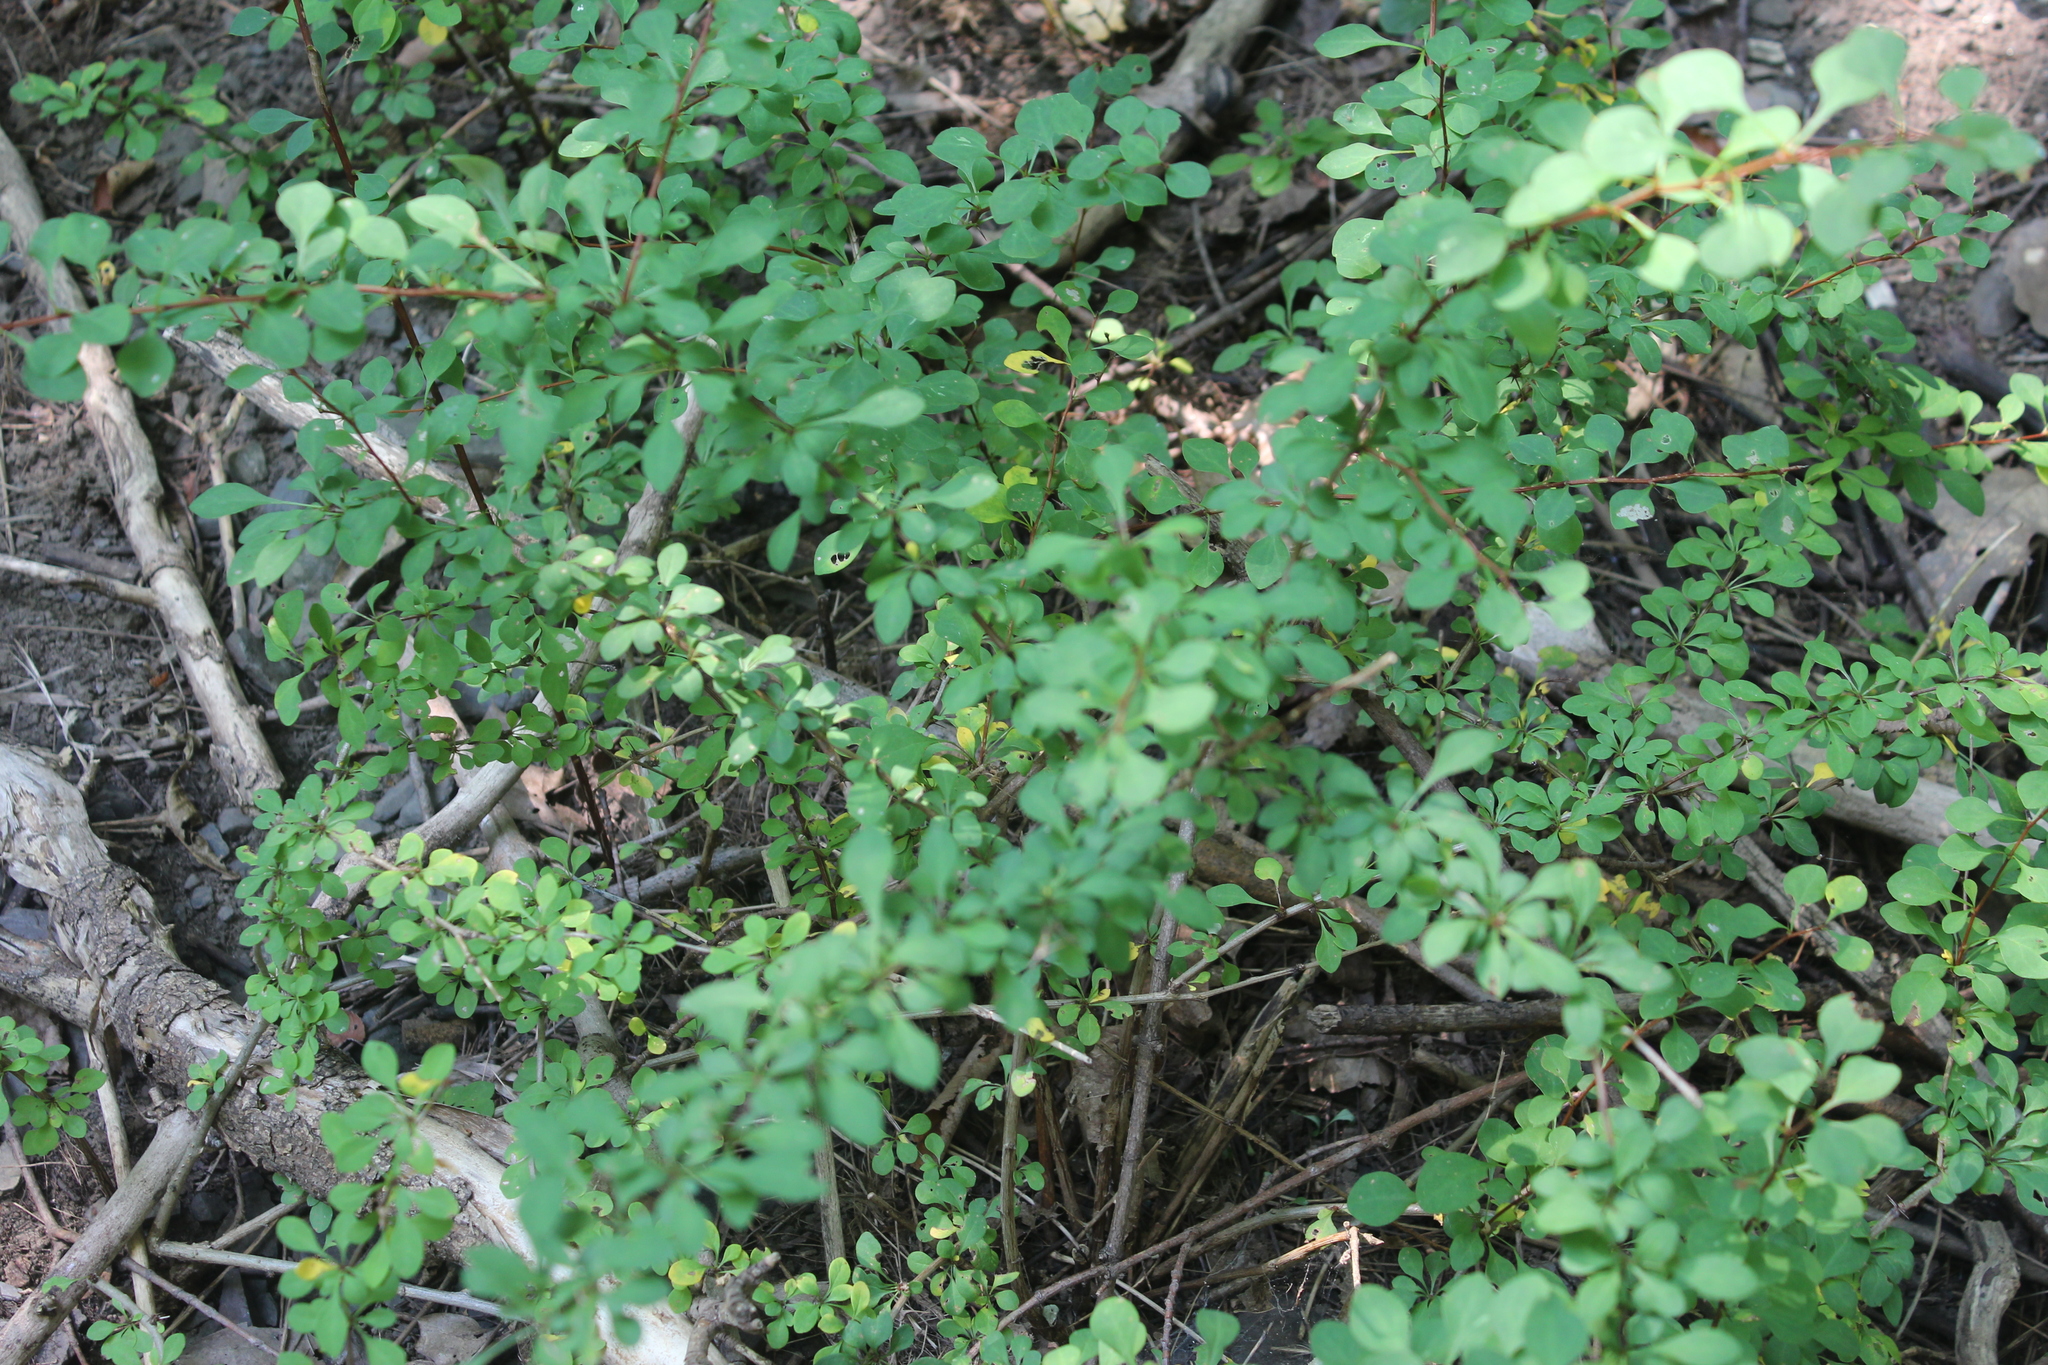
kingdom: Plantae
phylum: Tracheophyta
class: Magnoliopsida
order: Ranunculales
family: Berberidaceae
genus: Berberis
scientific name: Berberis thunbergii
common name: Japanese barberry
